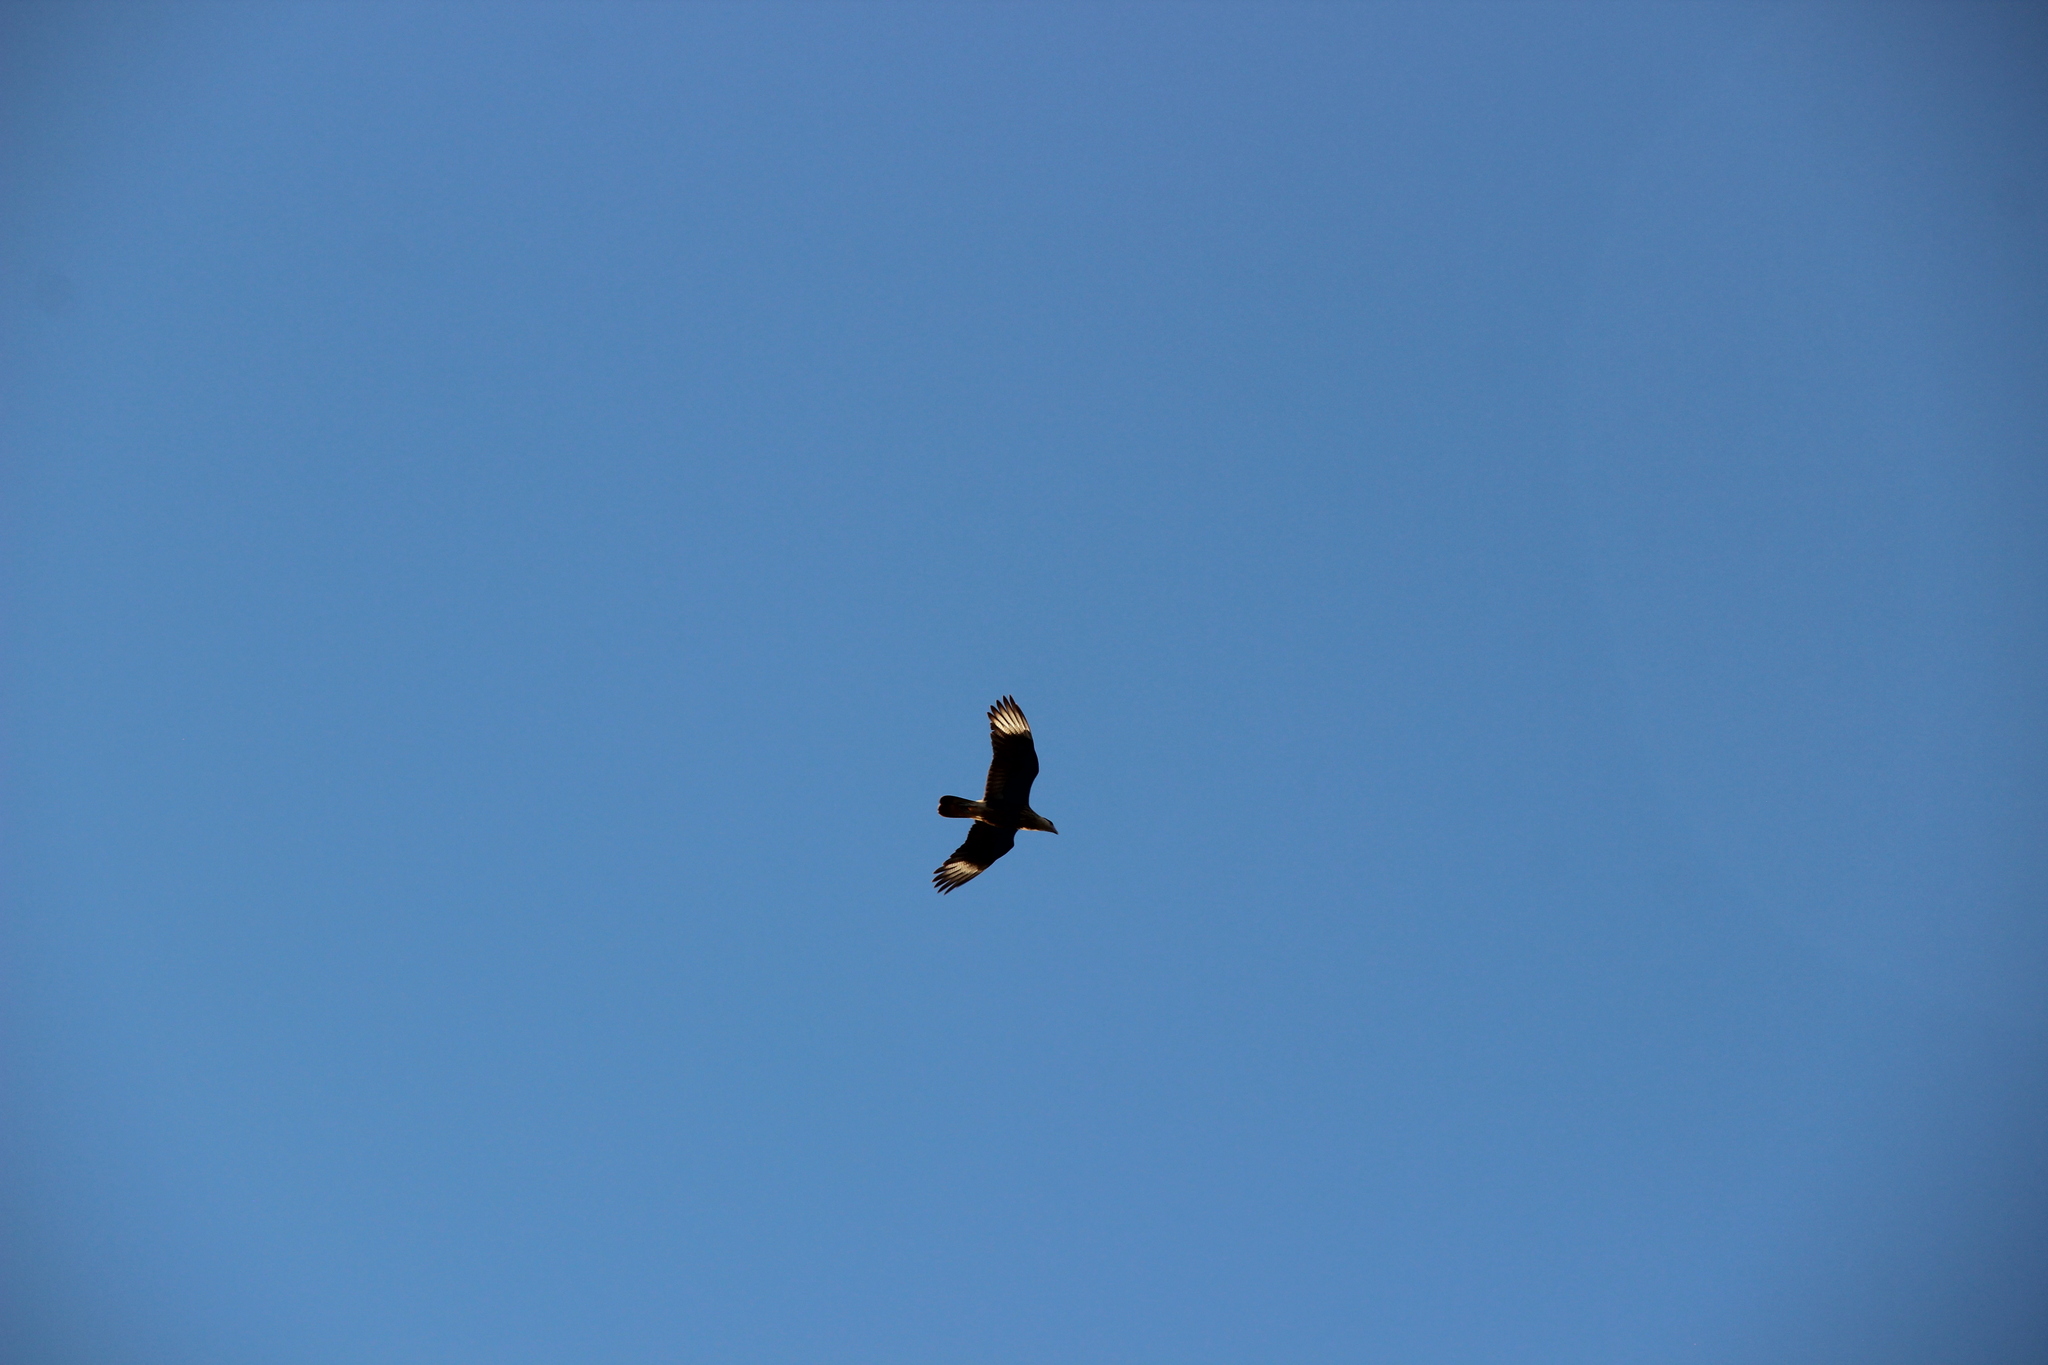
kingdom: Animalia
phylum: Chordata
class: Aves
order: Falconiformes
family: Falconidae
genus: Caracara
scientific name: Caracara plancus
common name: Southern caracara
